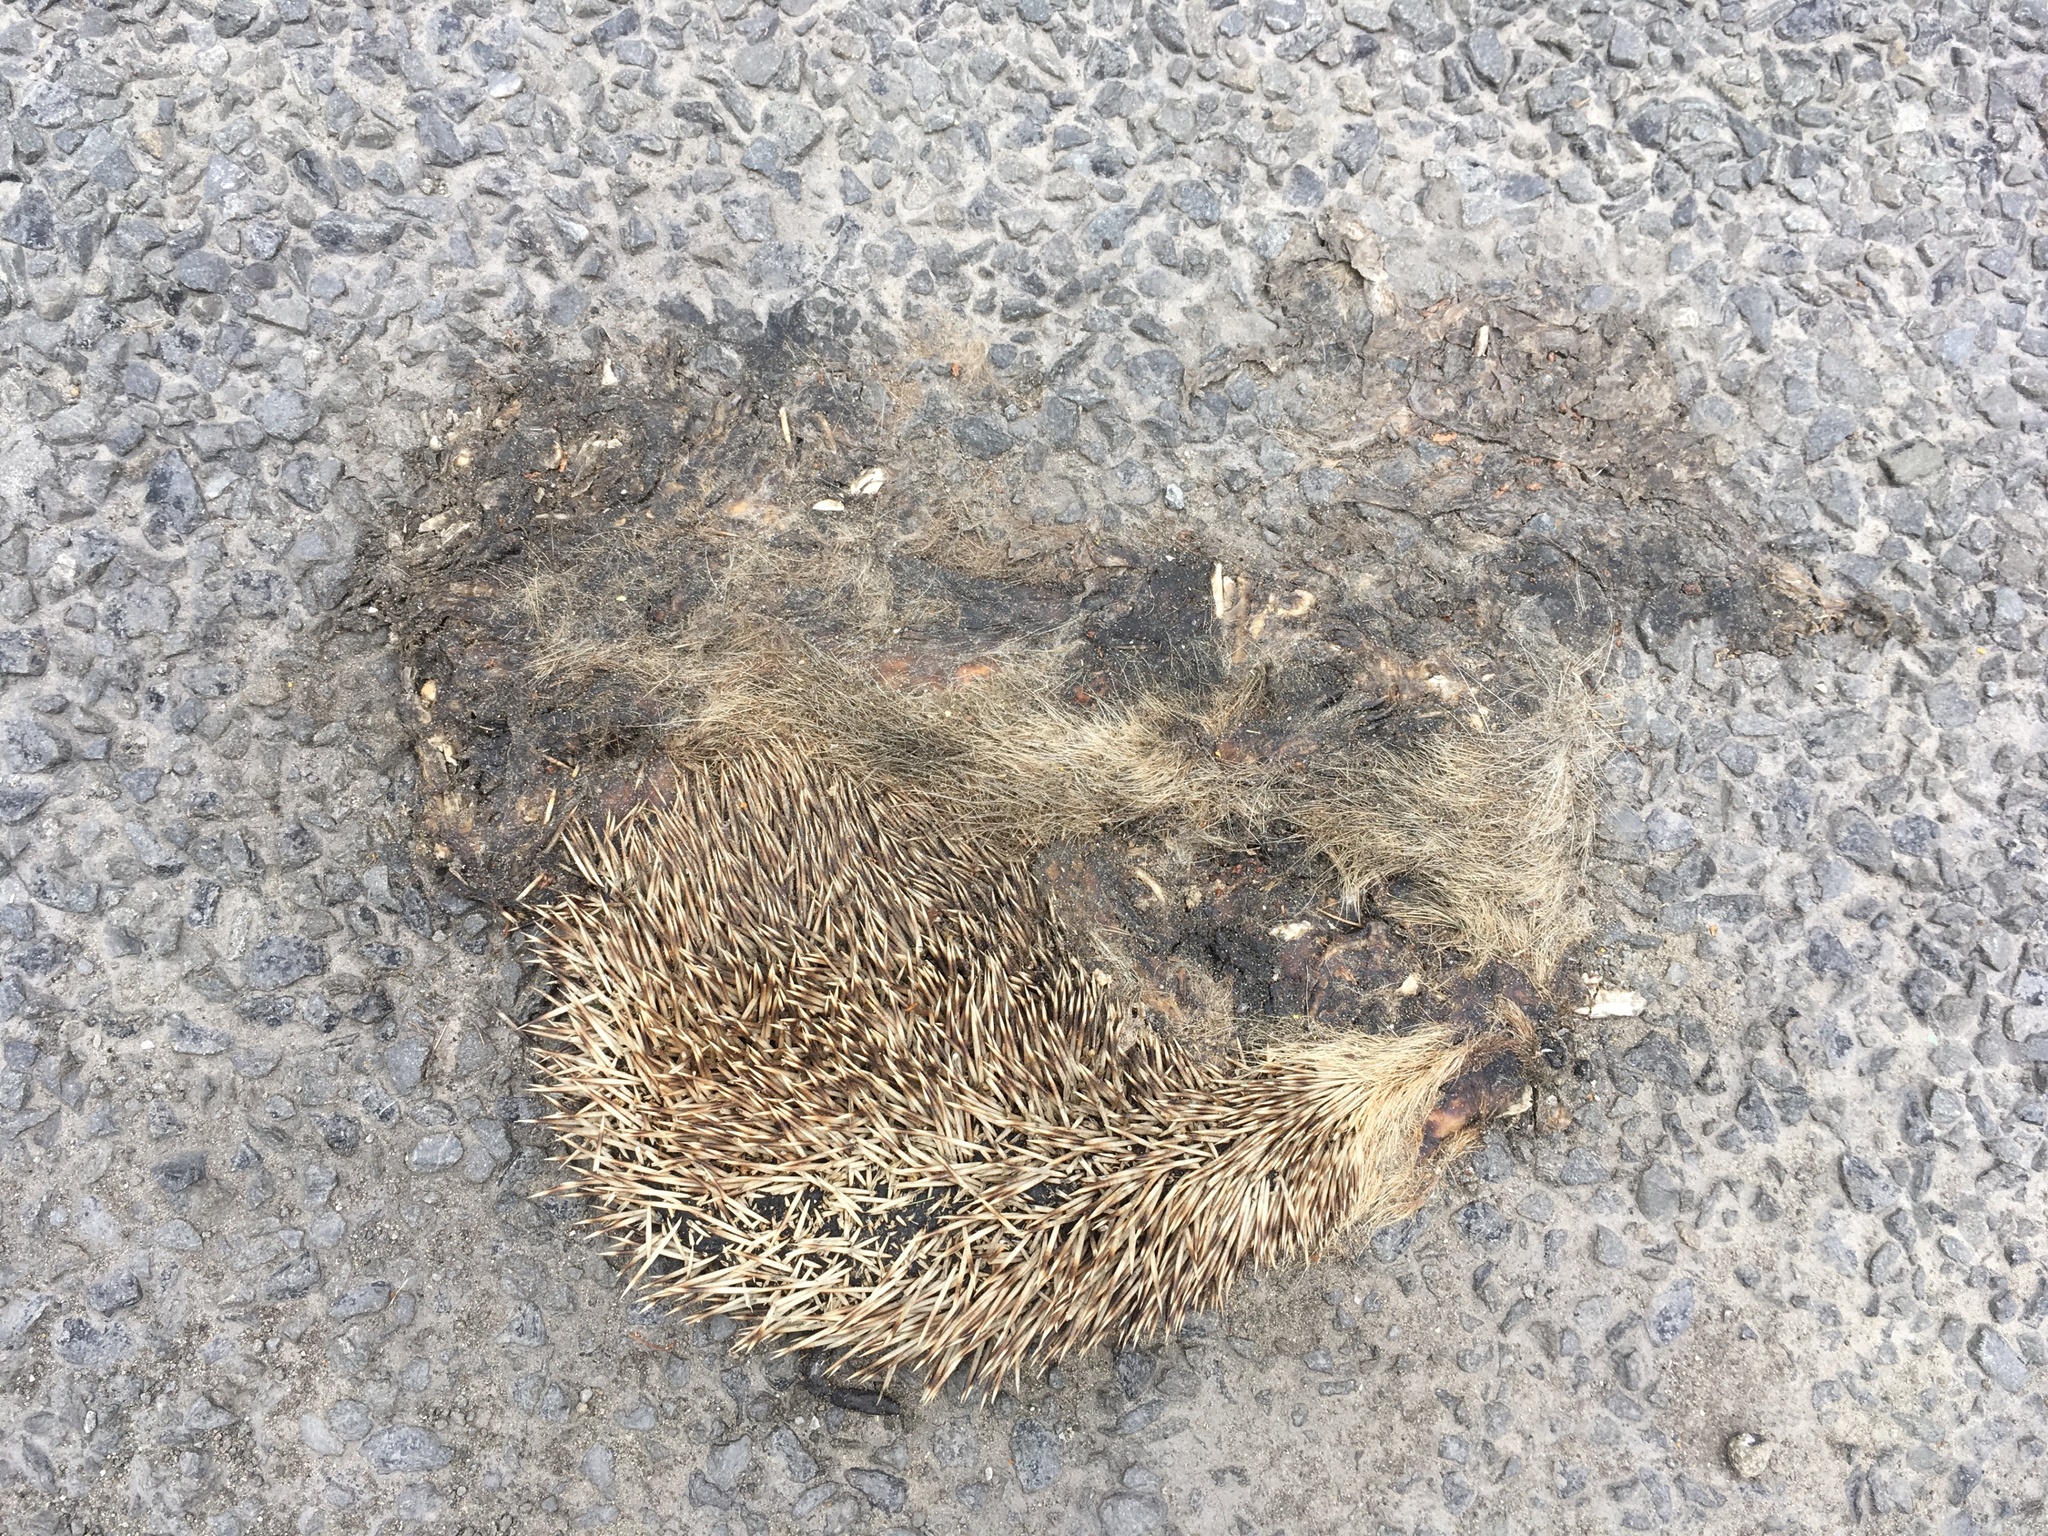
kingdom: Animalia
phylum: Chordata
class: Mammalia
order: Erinaceomorpha
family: Erinaceidae
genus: Erinaceus
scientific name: Erinaceus europaeus
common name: West european hedgehog
